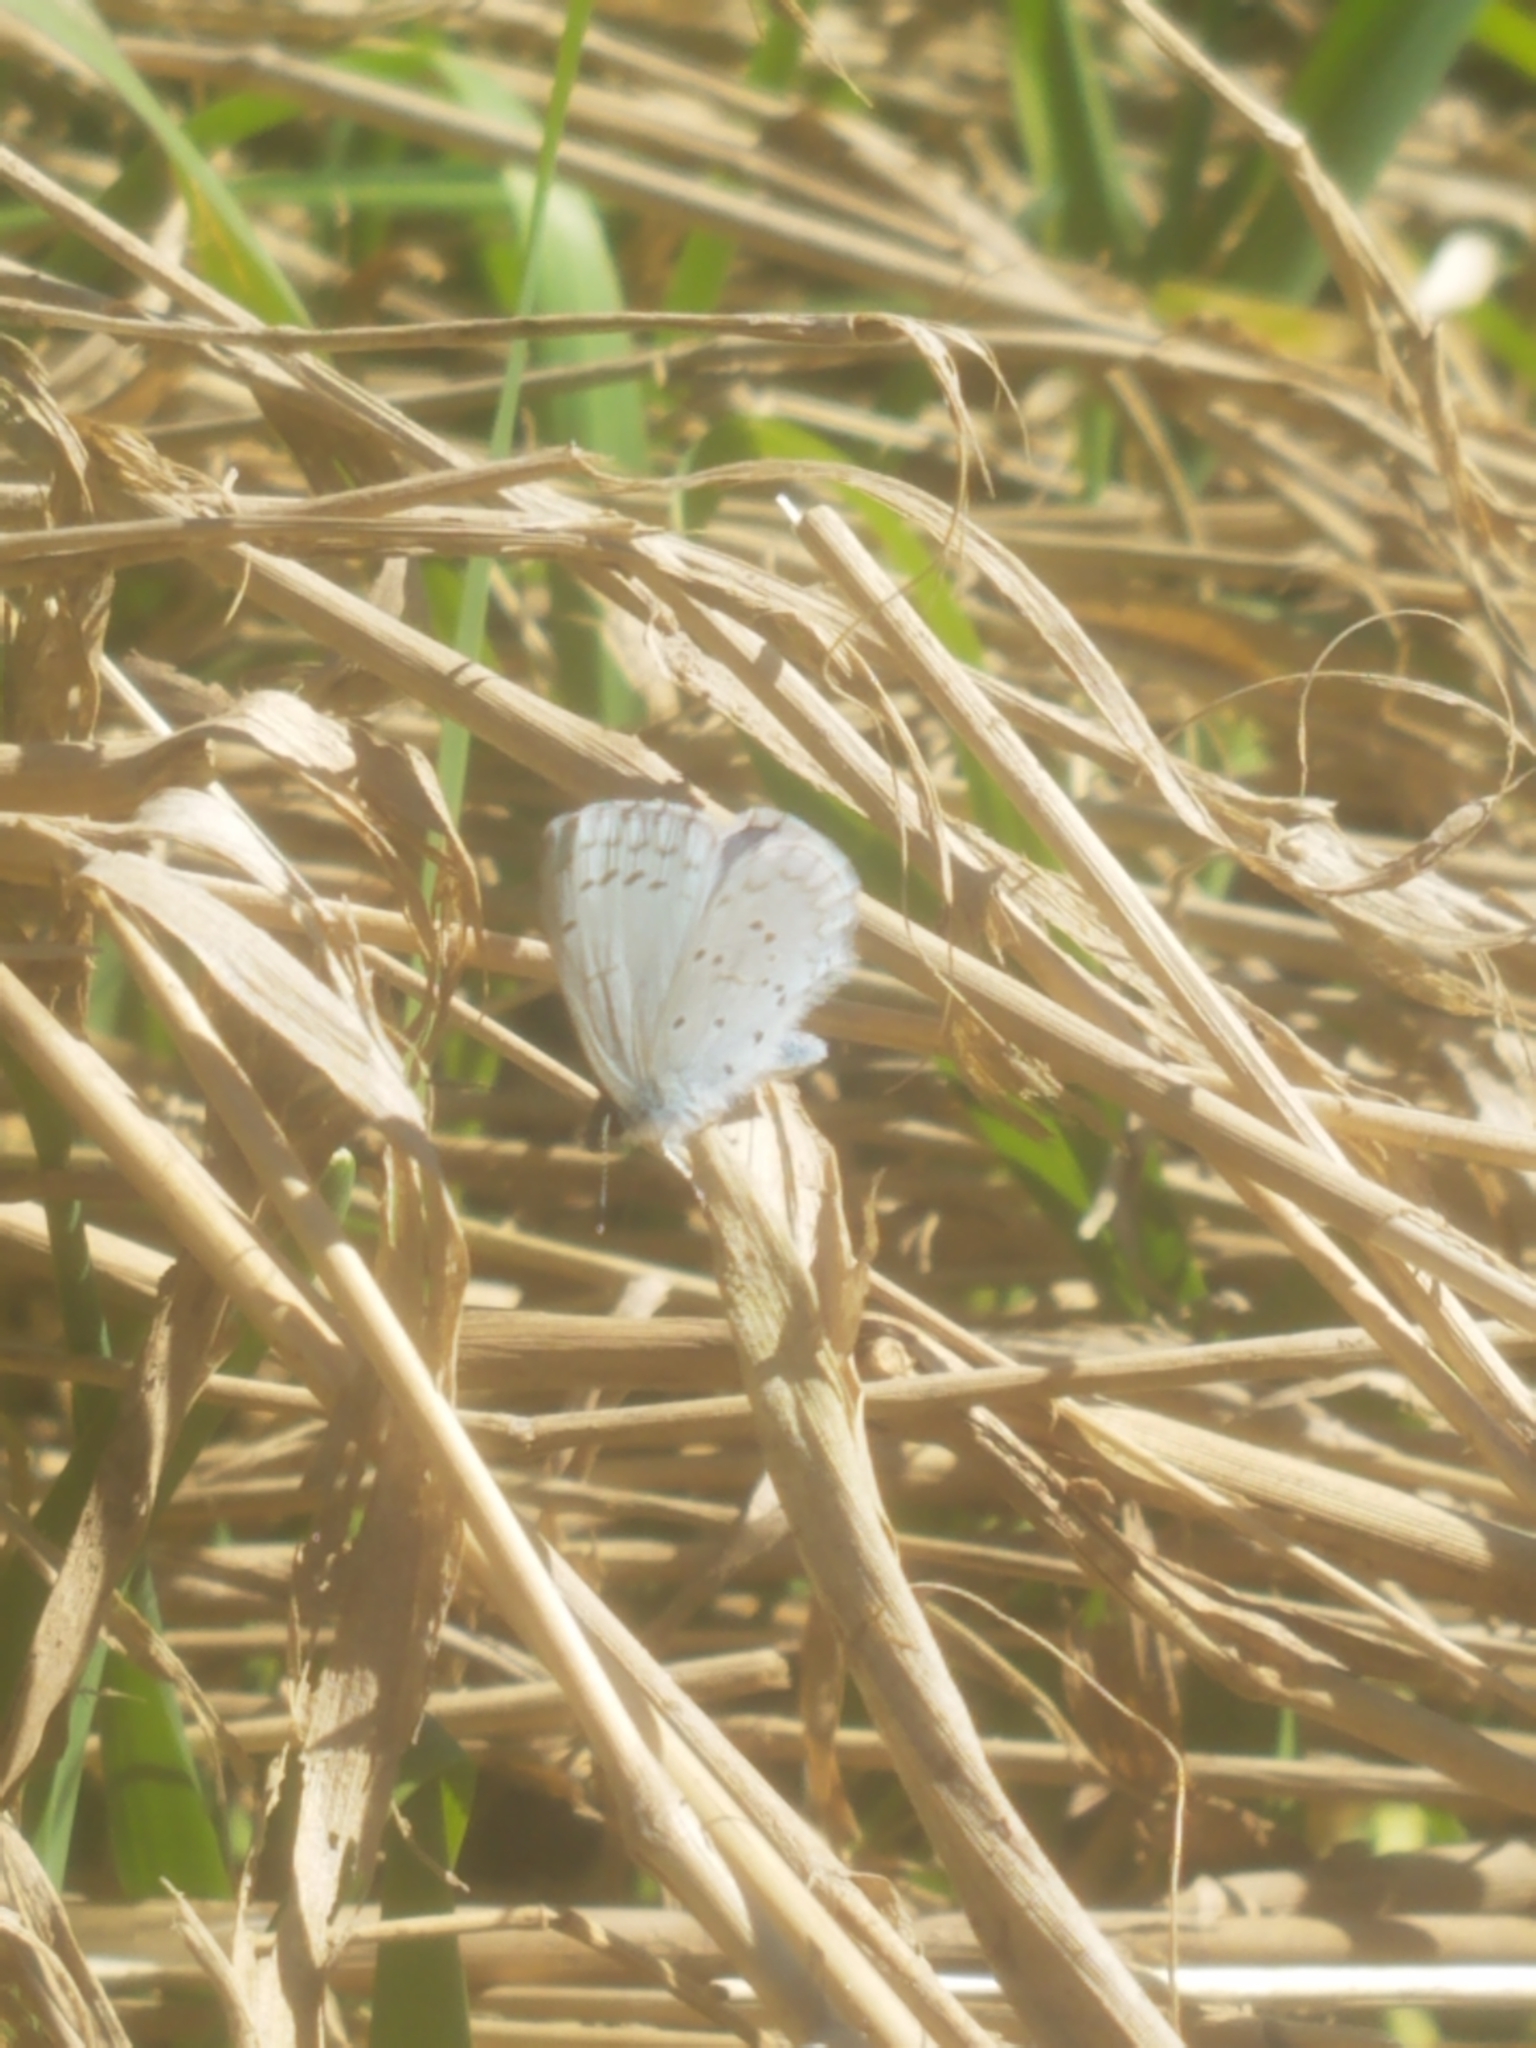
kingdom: Animalia
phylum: Arthropoda
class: Insecta
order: Lepidoptera
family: Lycaenidae
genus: Celastrina
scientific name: Celastrina ladon
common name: Spring azure
